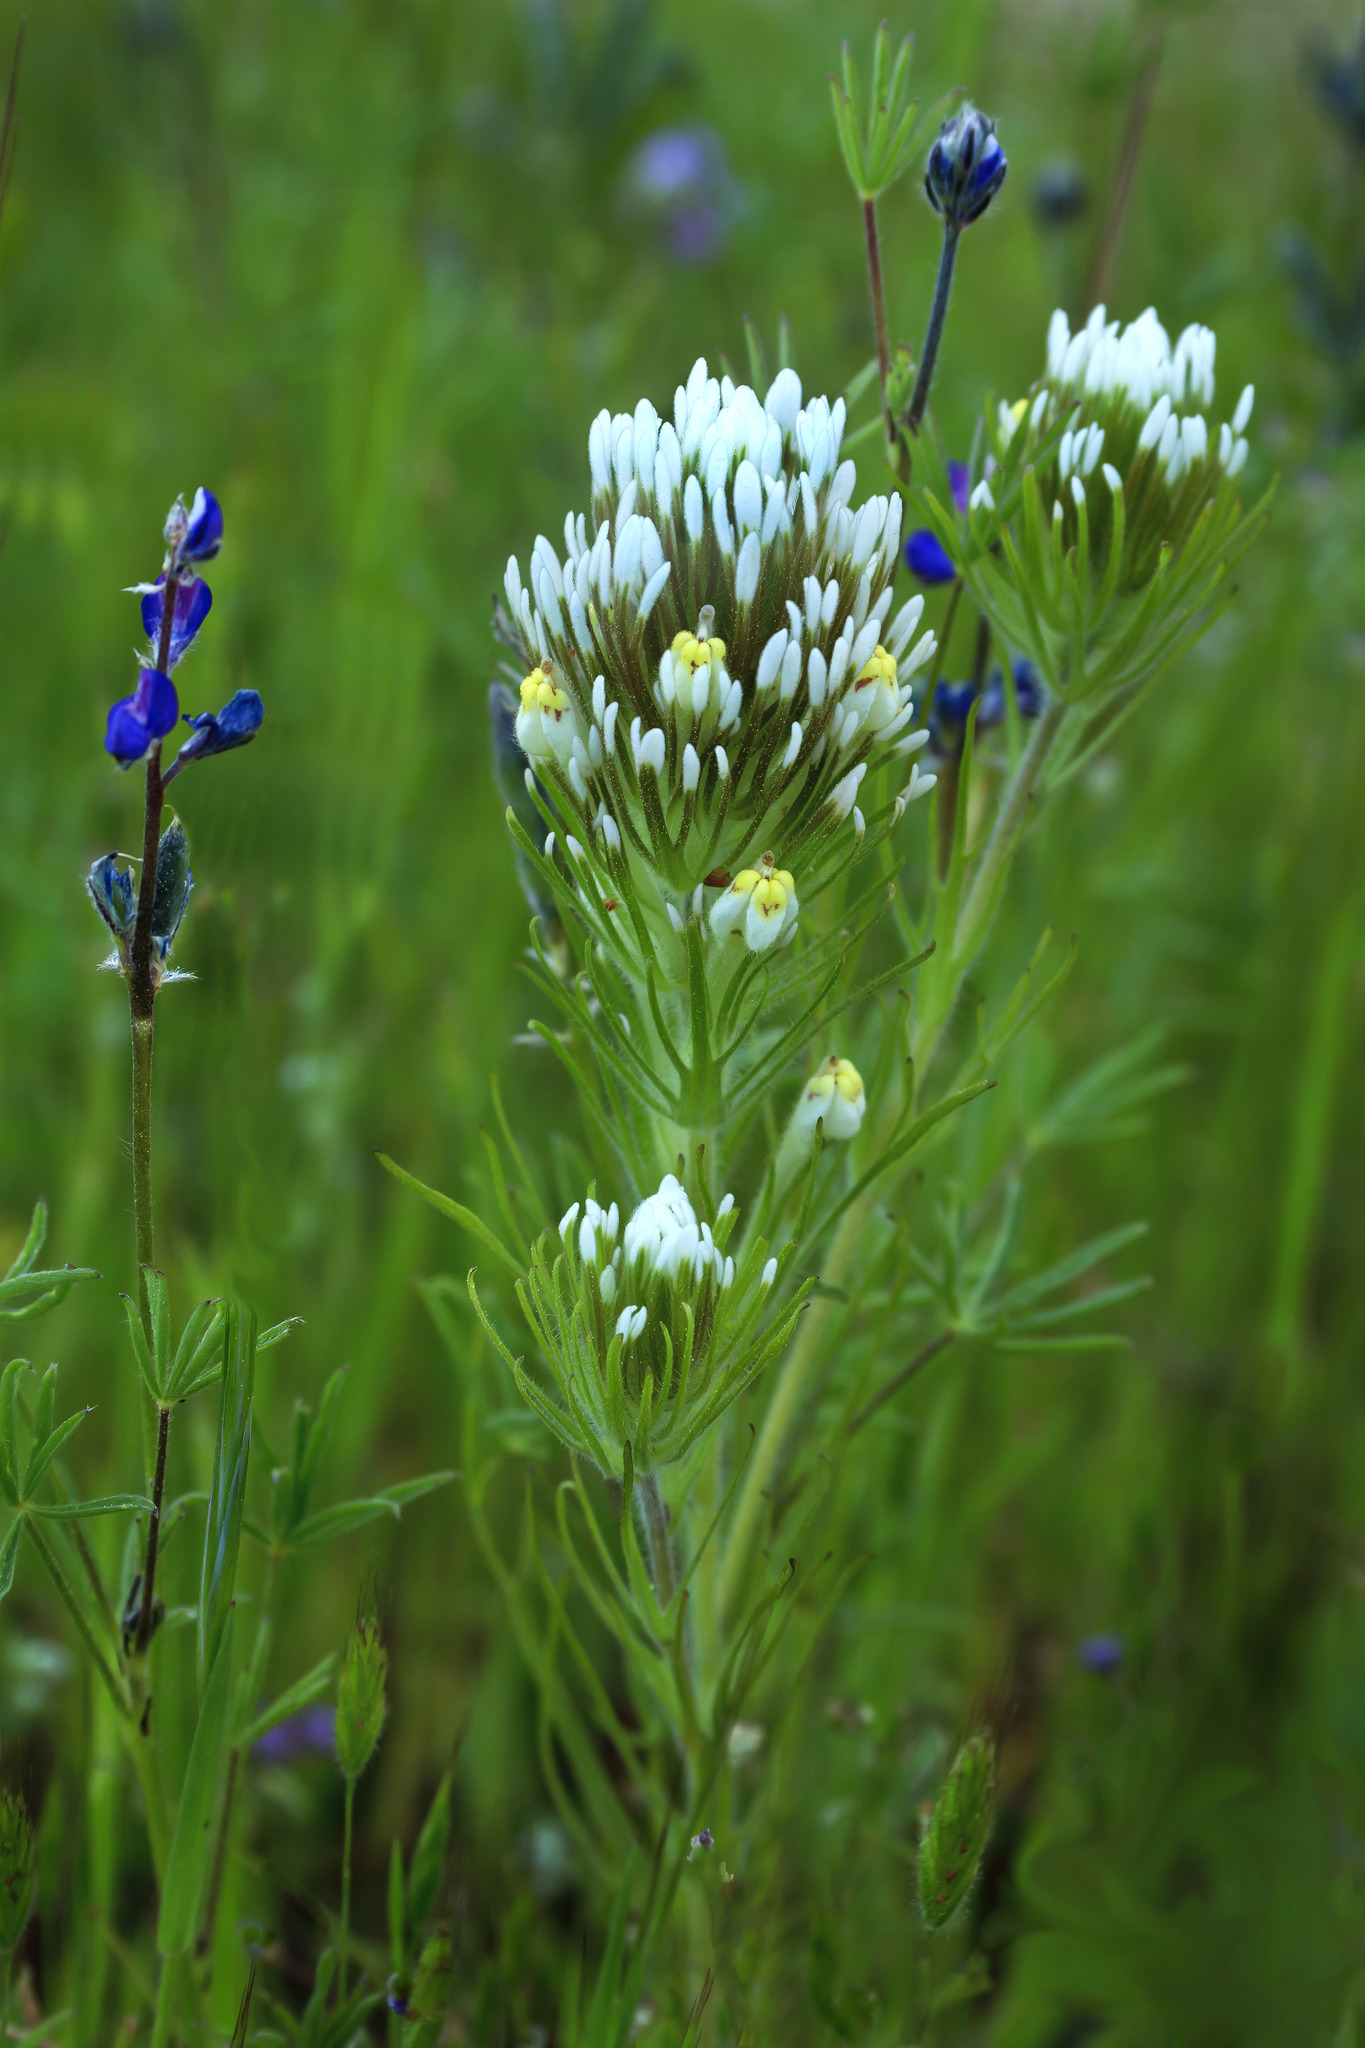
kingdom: Plantae
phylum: Tracheophyta
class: Magnoliopsida
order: Lamiales
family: Orobanchaceae
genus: Castilleja
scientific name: Castilleja lineariloba
